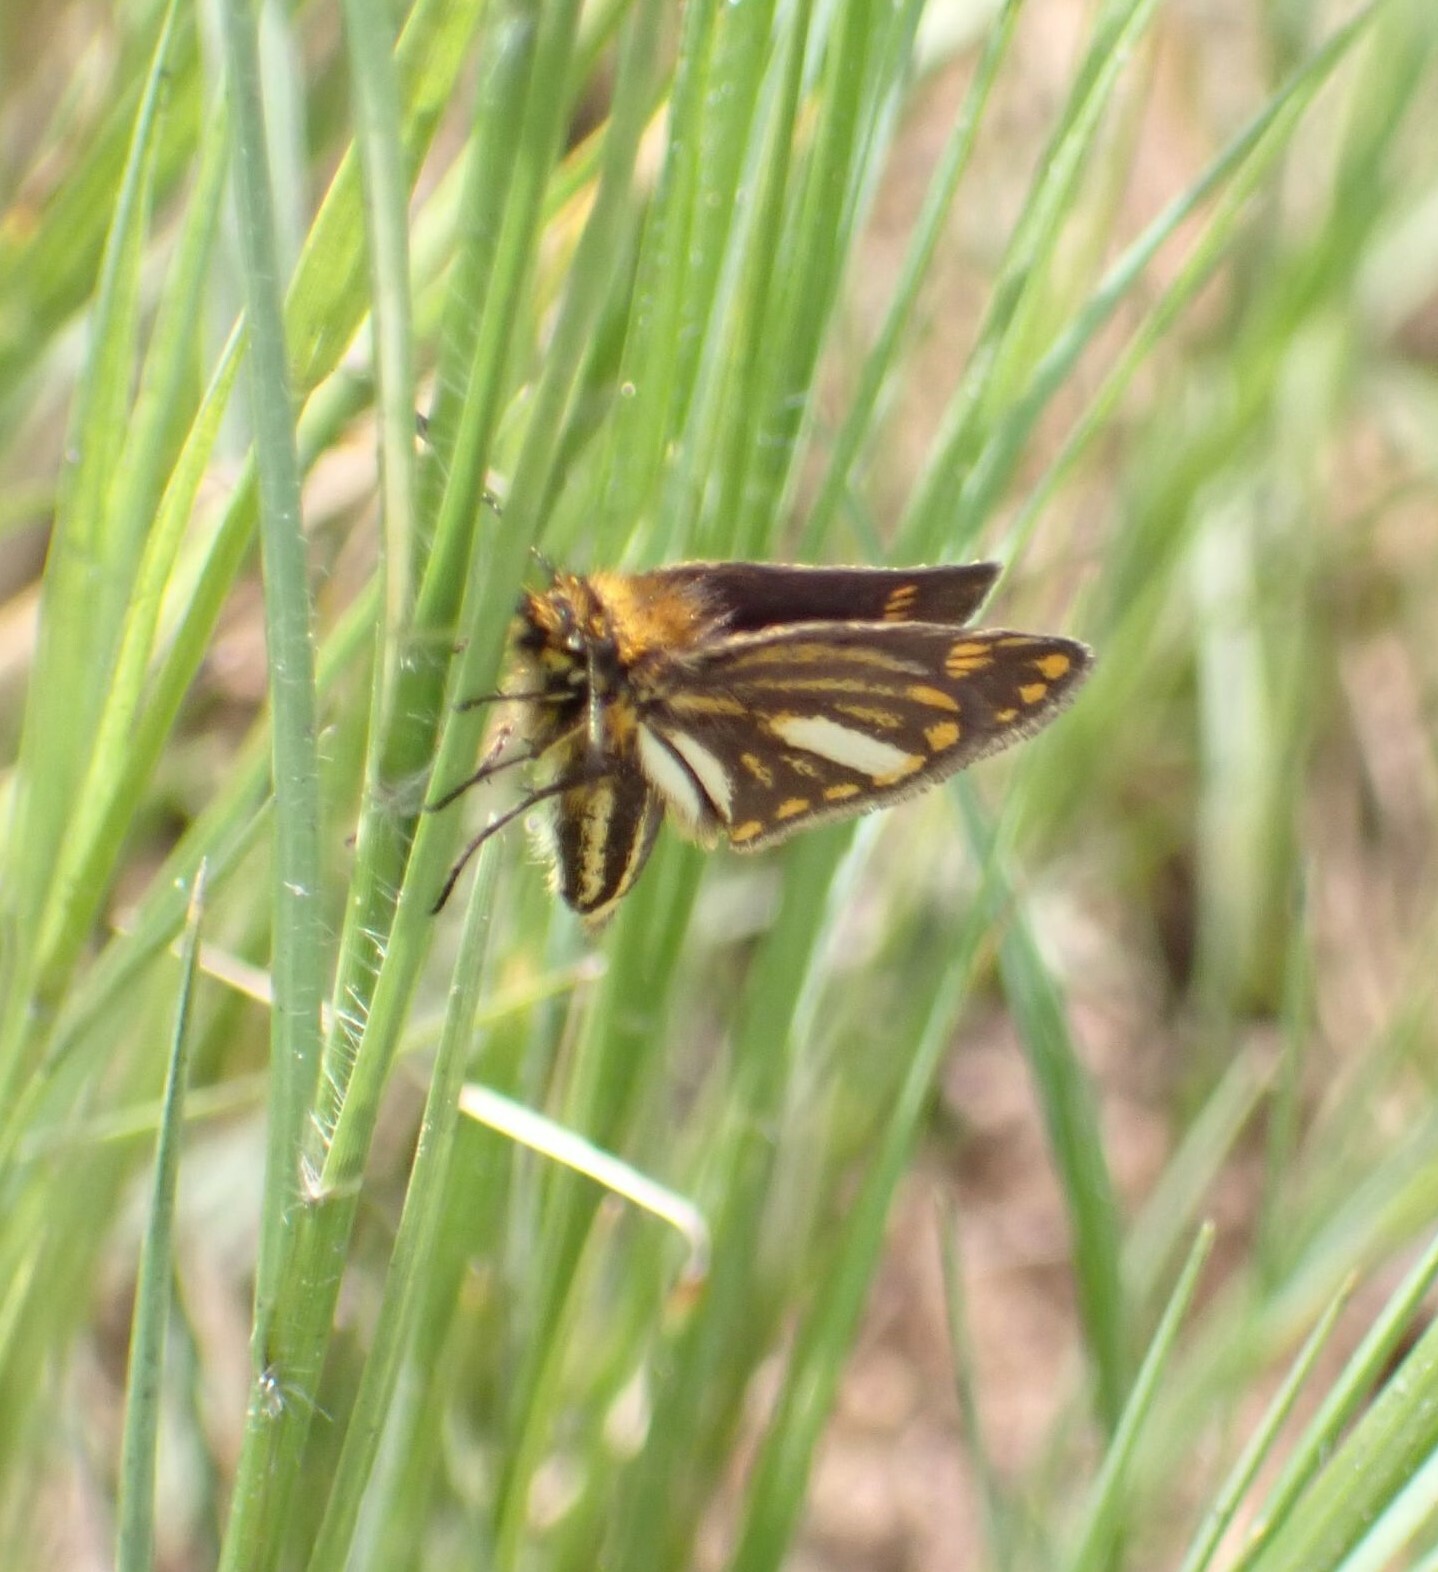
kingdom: Animalia
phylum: Arthropoda
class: Insecta
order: Lepidoptera
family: Hesperiidae
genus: Metisella
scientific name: Metisella meninx
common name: Marsh sylph
